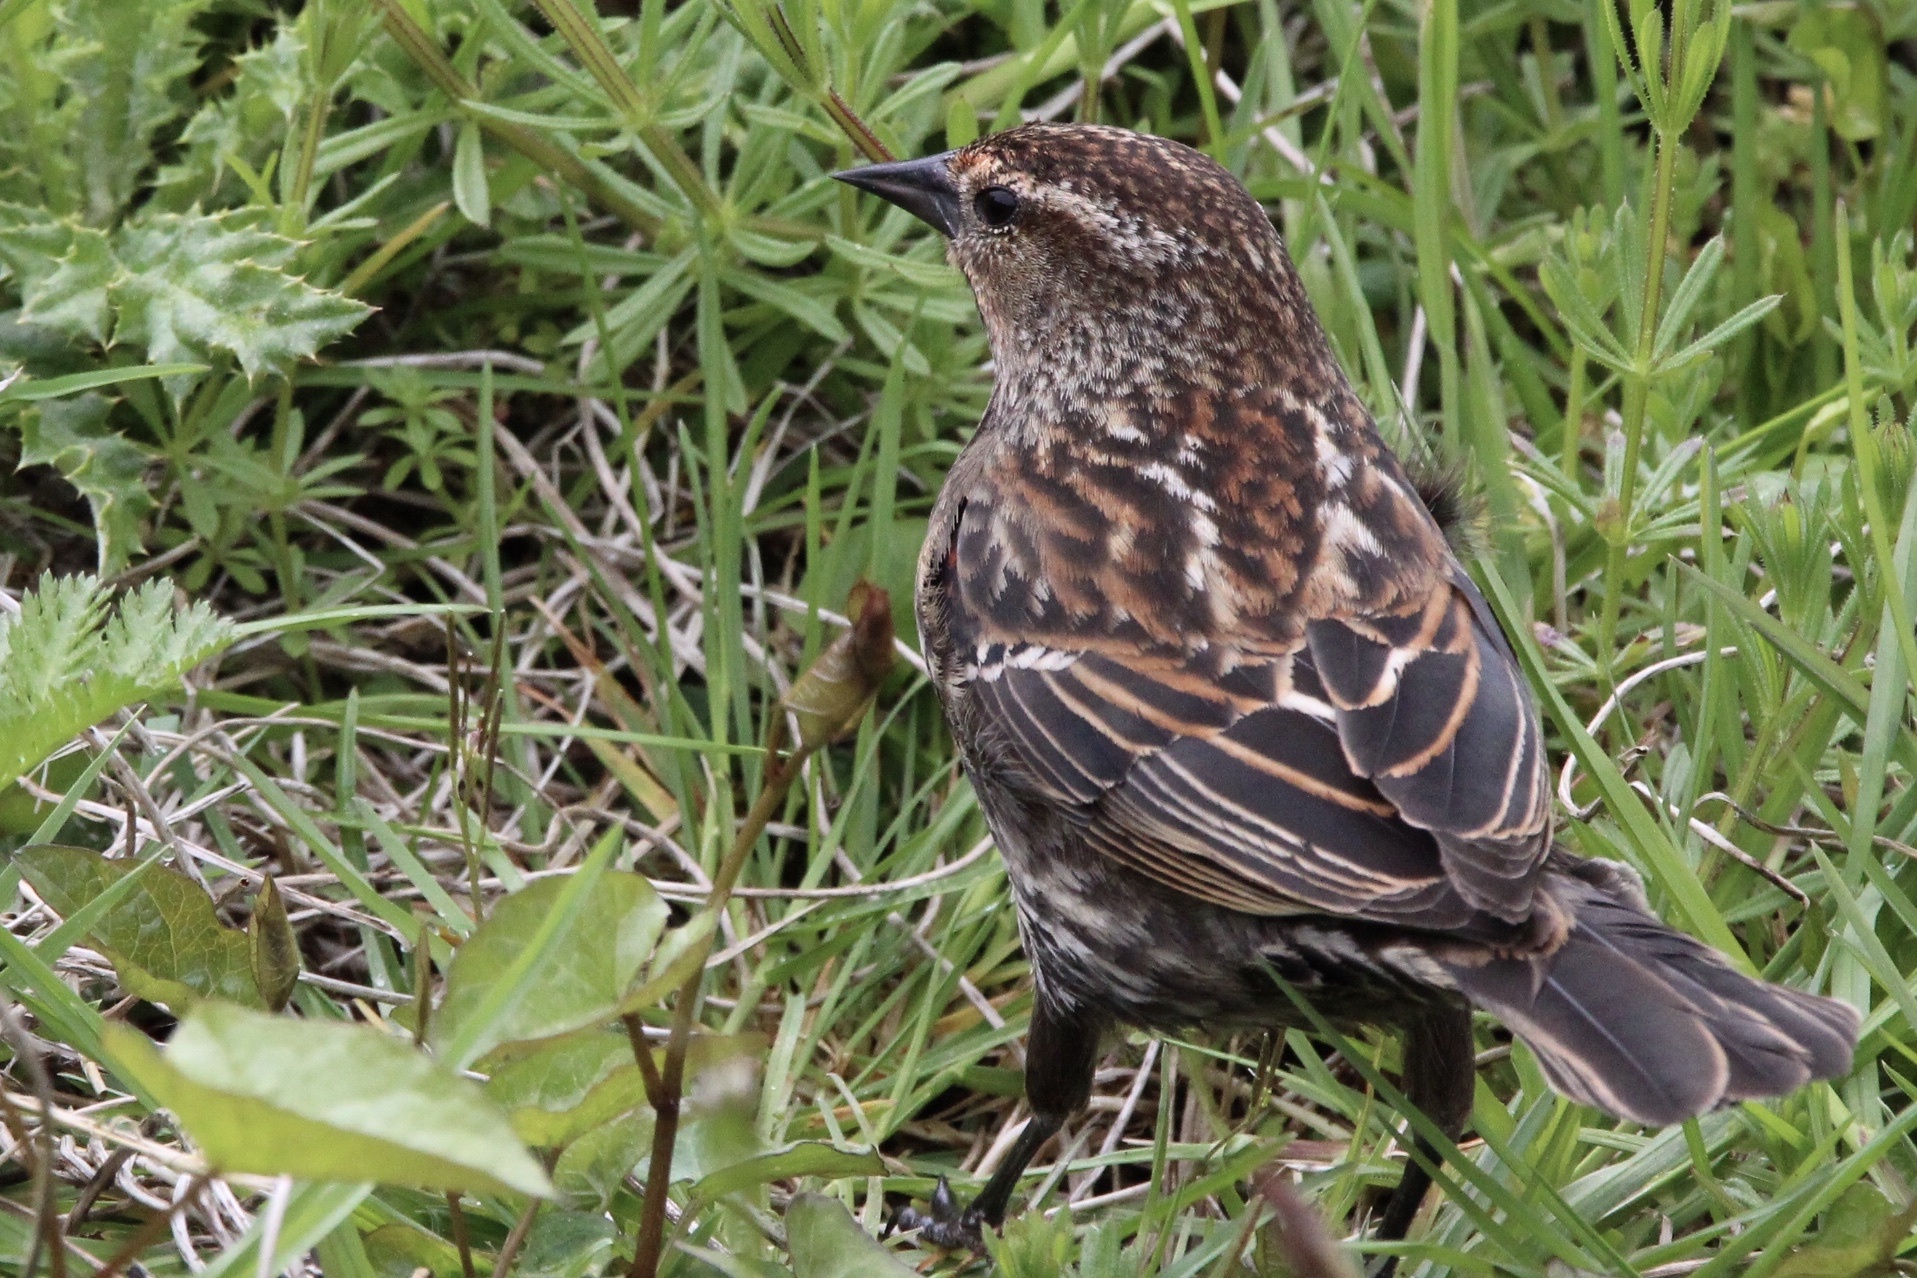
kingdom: Animalia
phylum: Chordata
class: Aves
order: Passeriformes
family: Icteridae
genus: Agelaius
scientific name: Agelaius phoeniceus
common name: Red-winged blackbird
